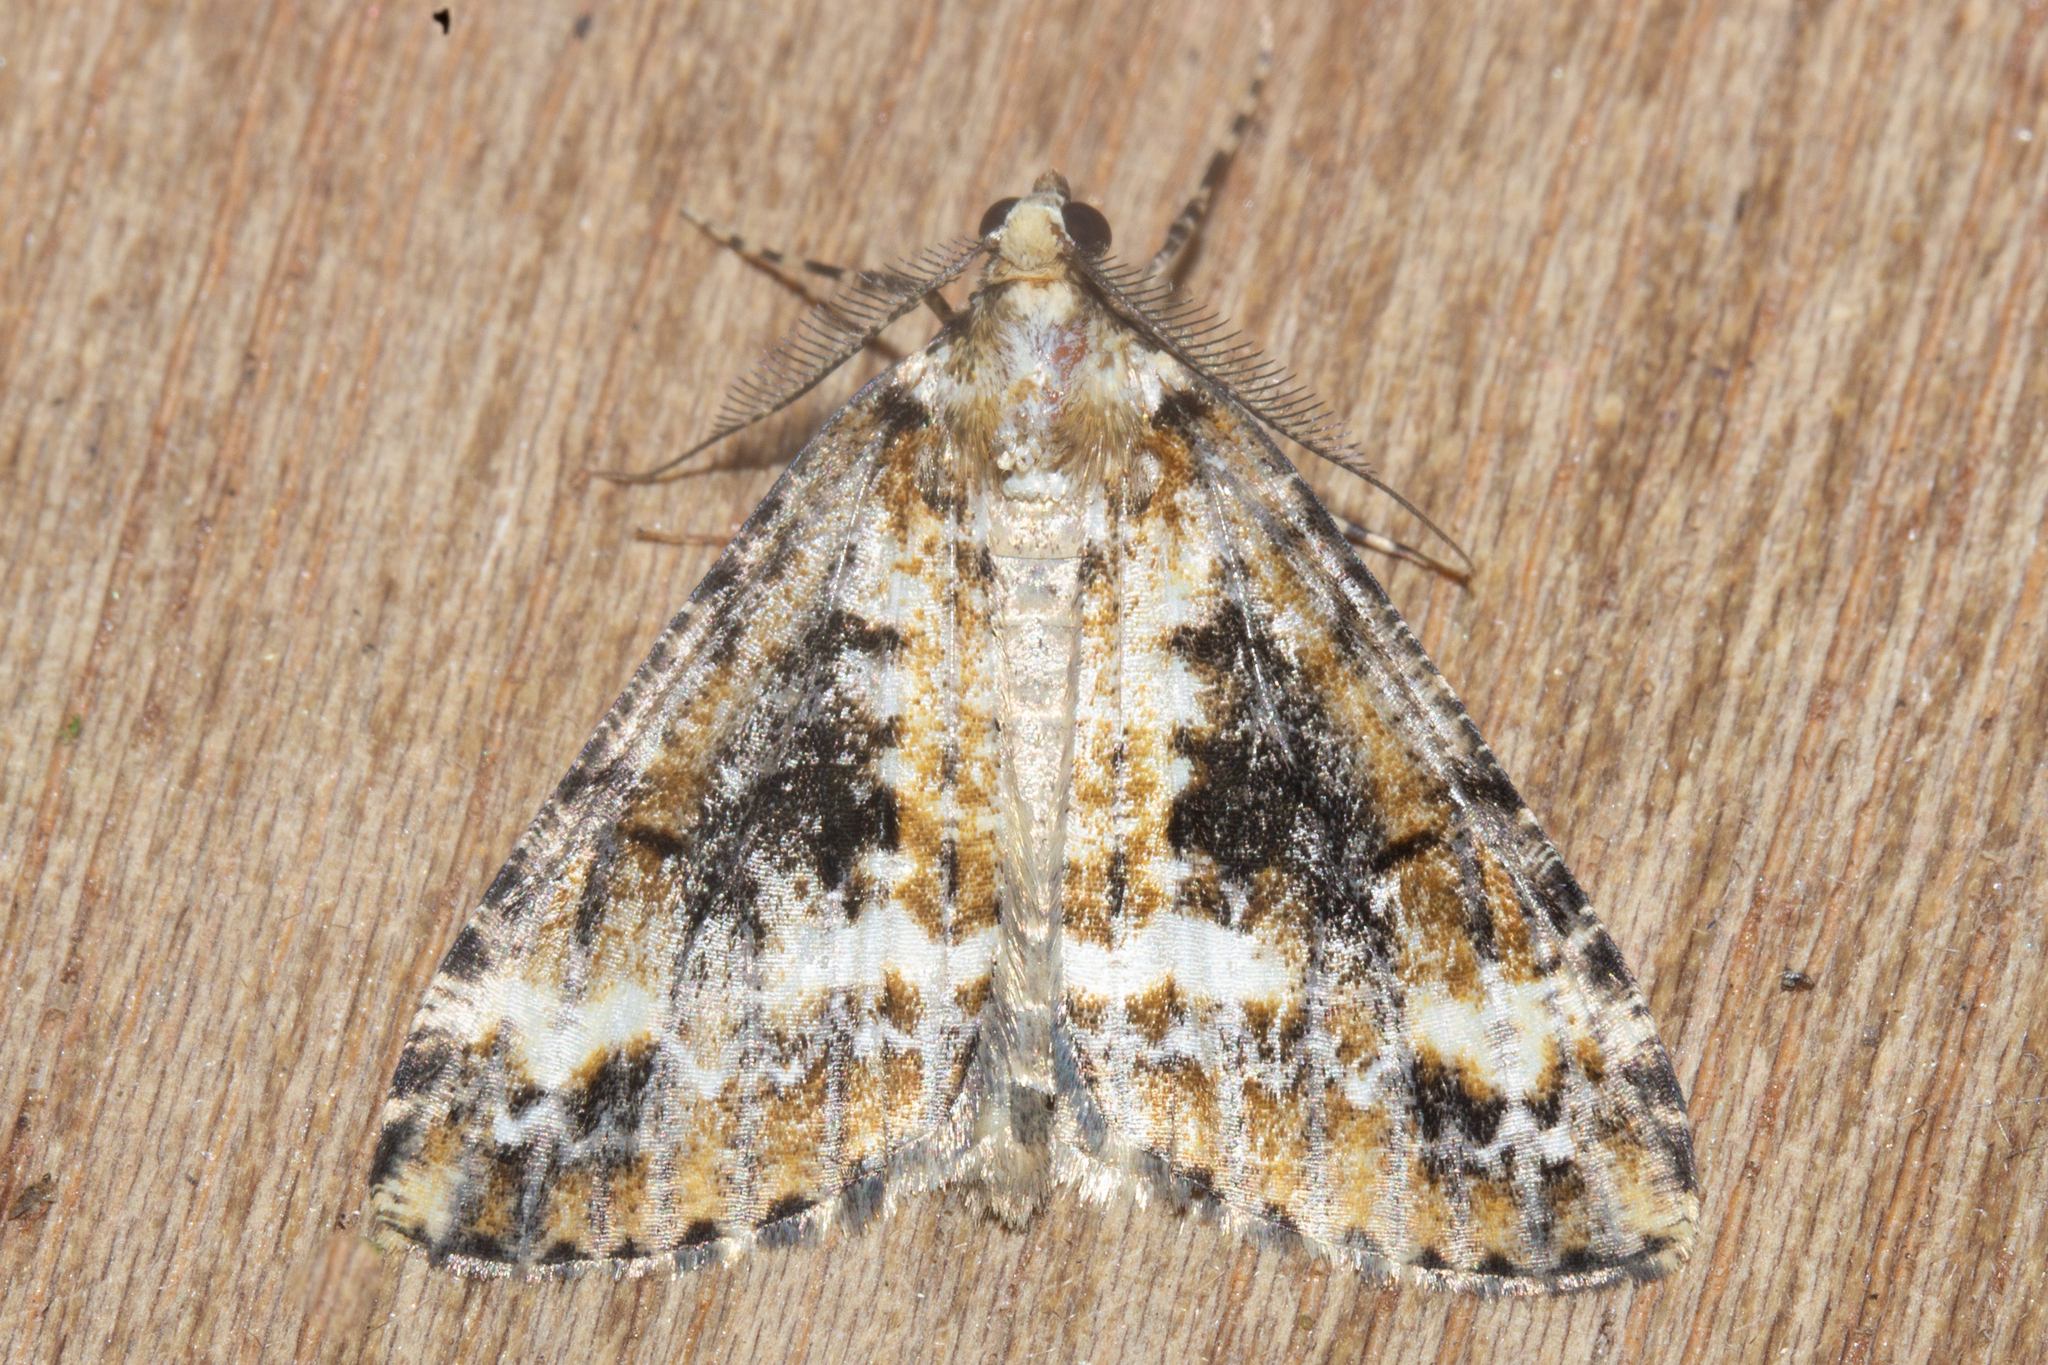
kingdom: Animalia
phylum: Arthropoda
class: Insecta
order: Lepidoptera
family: Geometridae
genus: Pseudocoremia
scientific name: Pseudocoremia leucelaea
